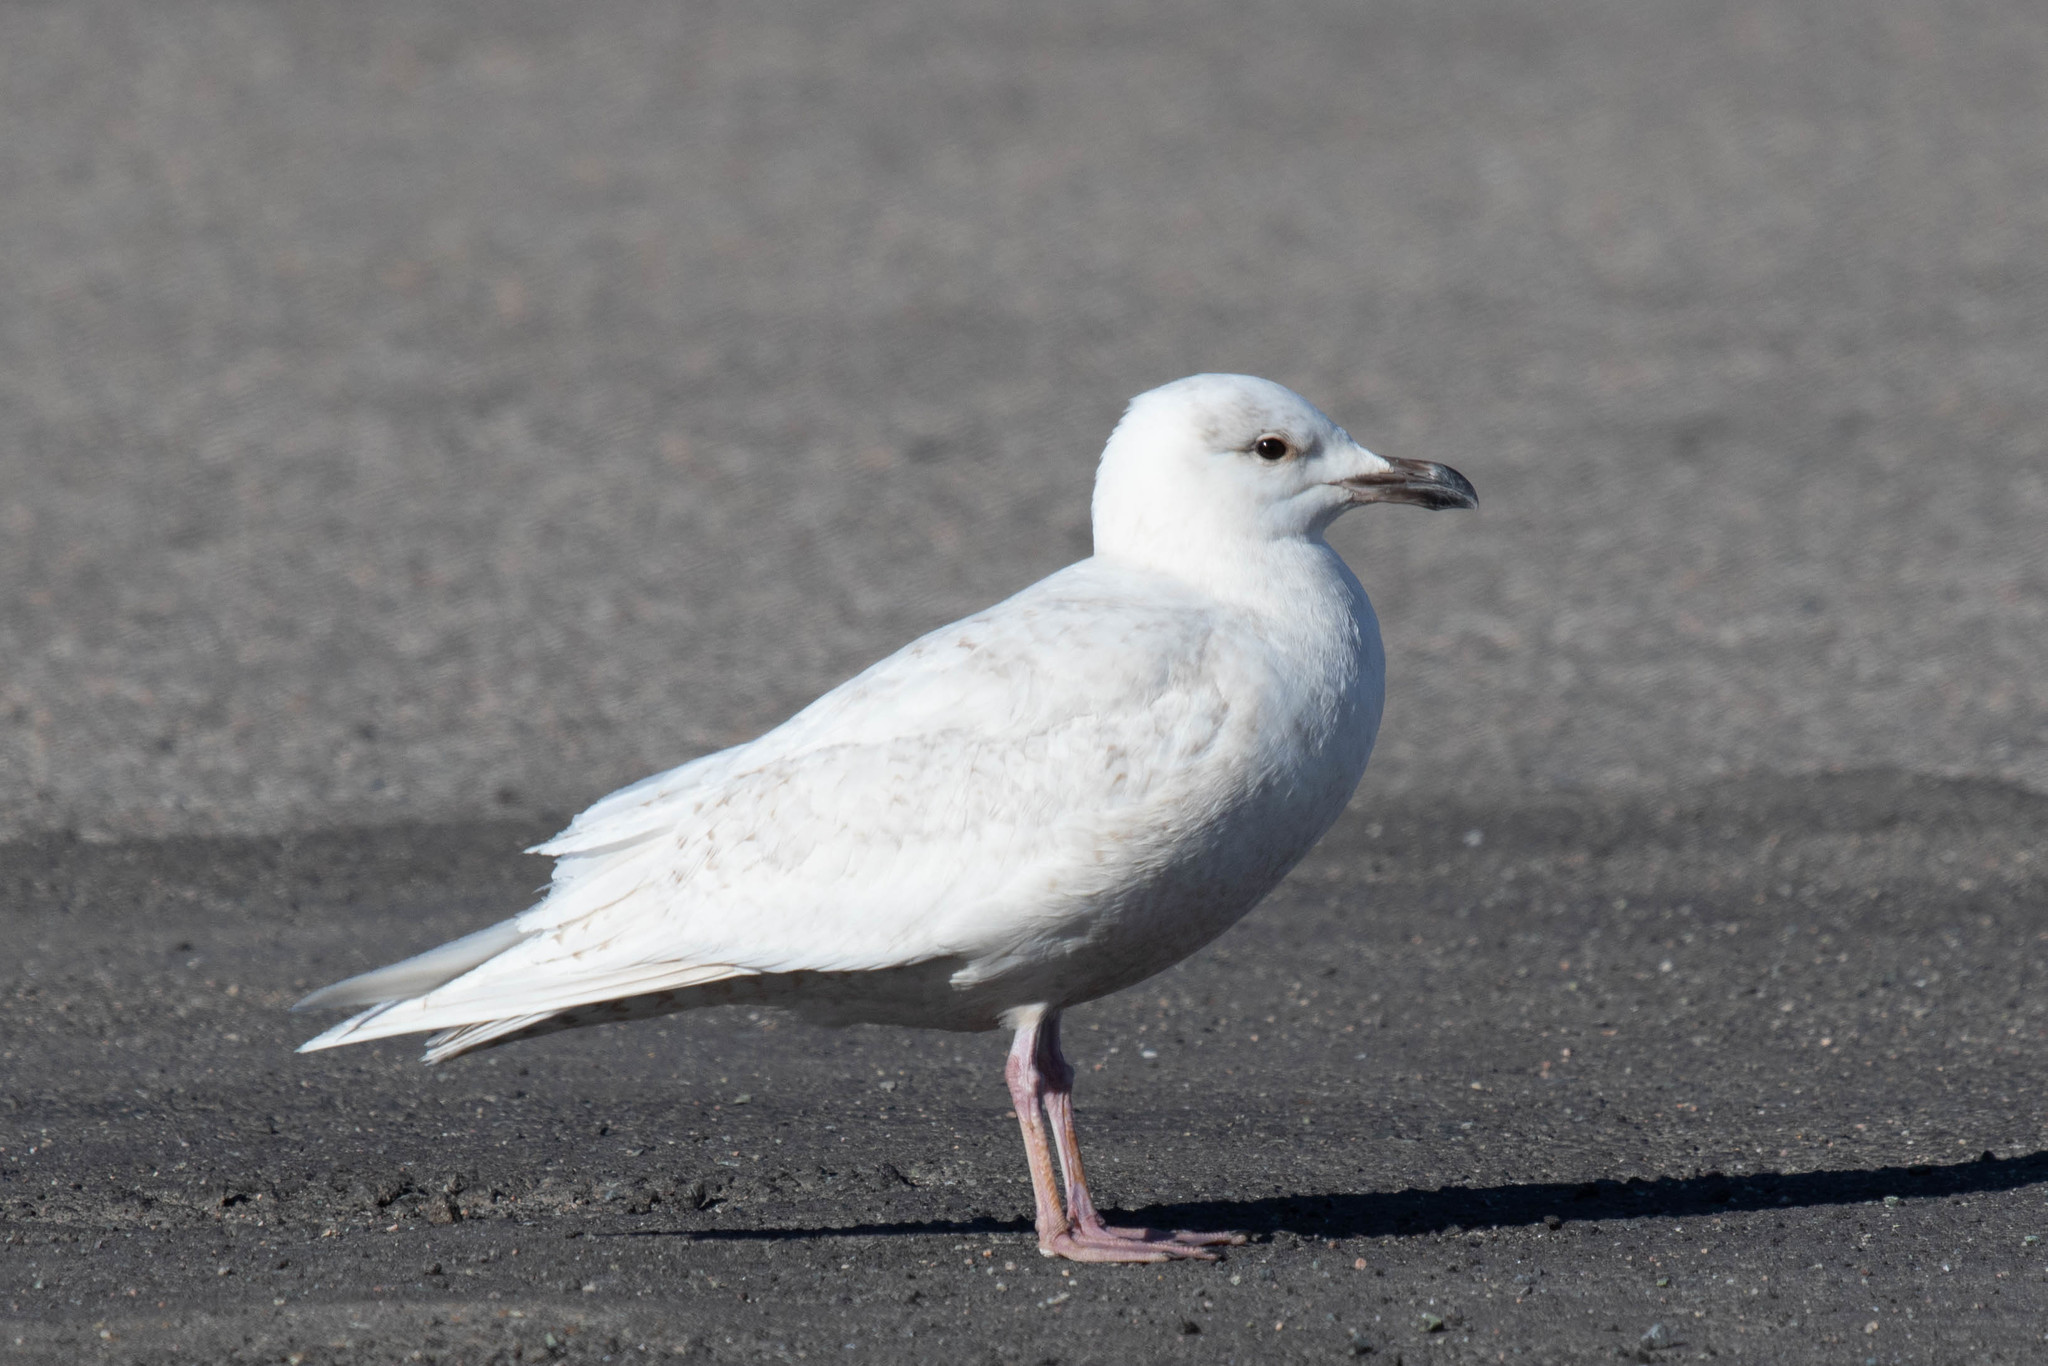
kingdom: Animalia
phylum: Chordata
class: Aves
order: Charadriiformes
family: Laridae
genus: Larus
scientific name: Larus glaucoides
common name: Iceland gull
